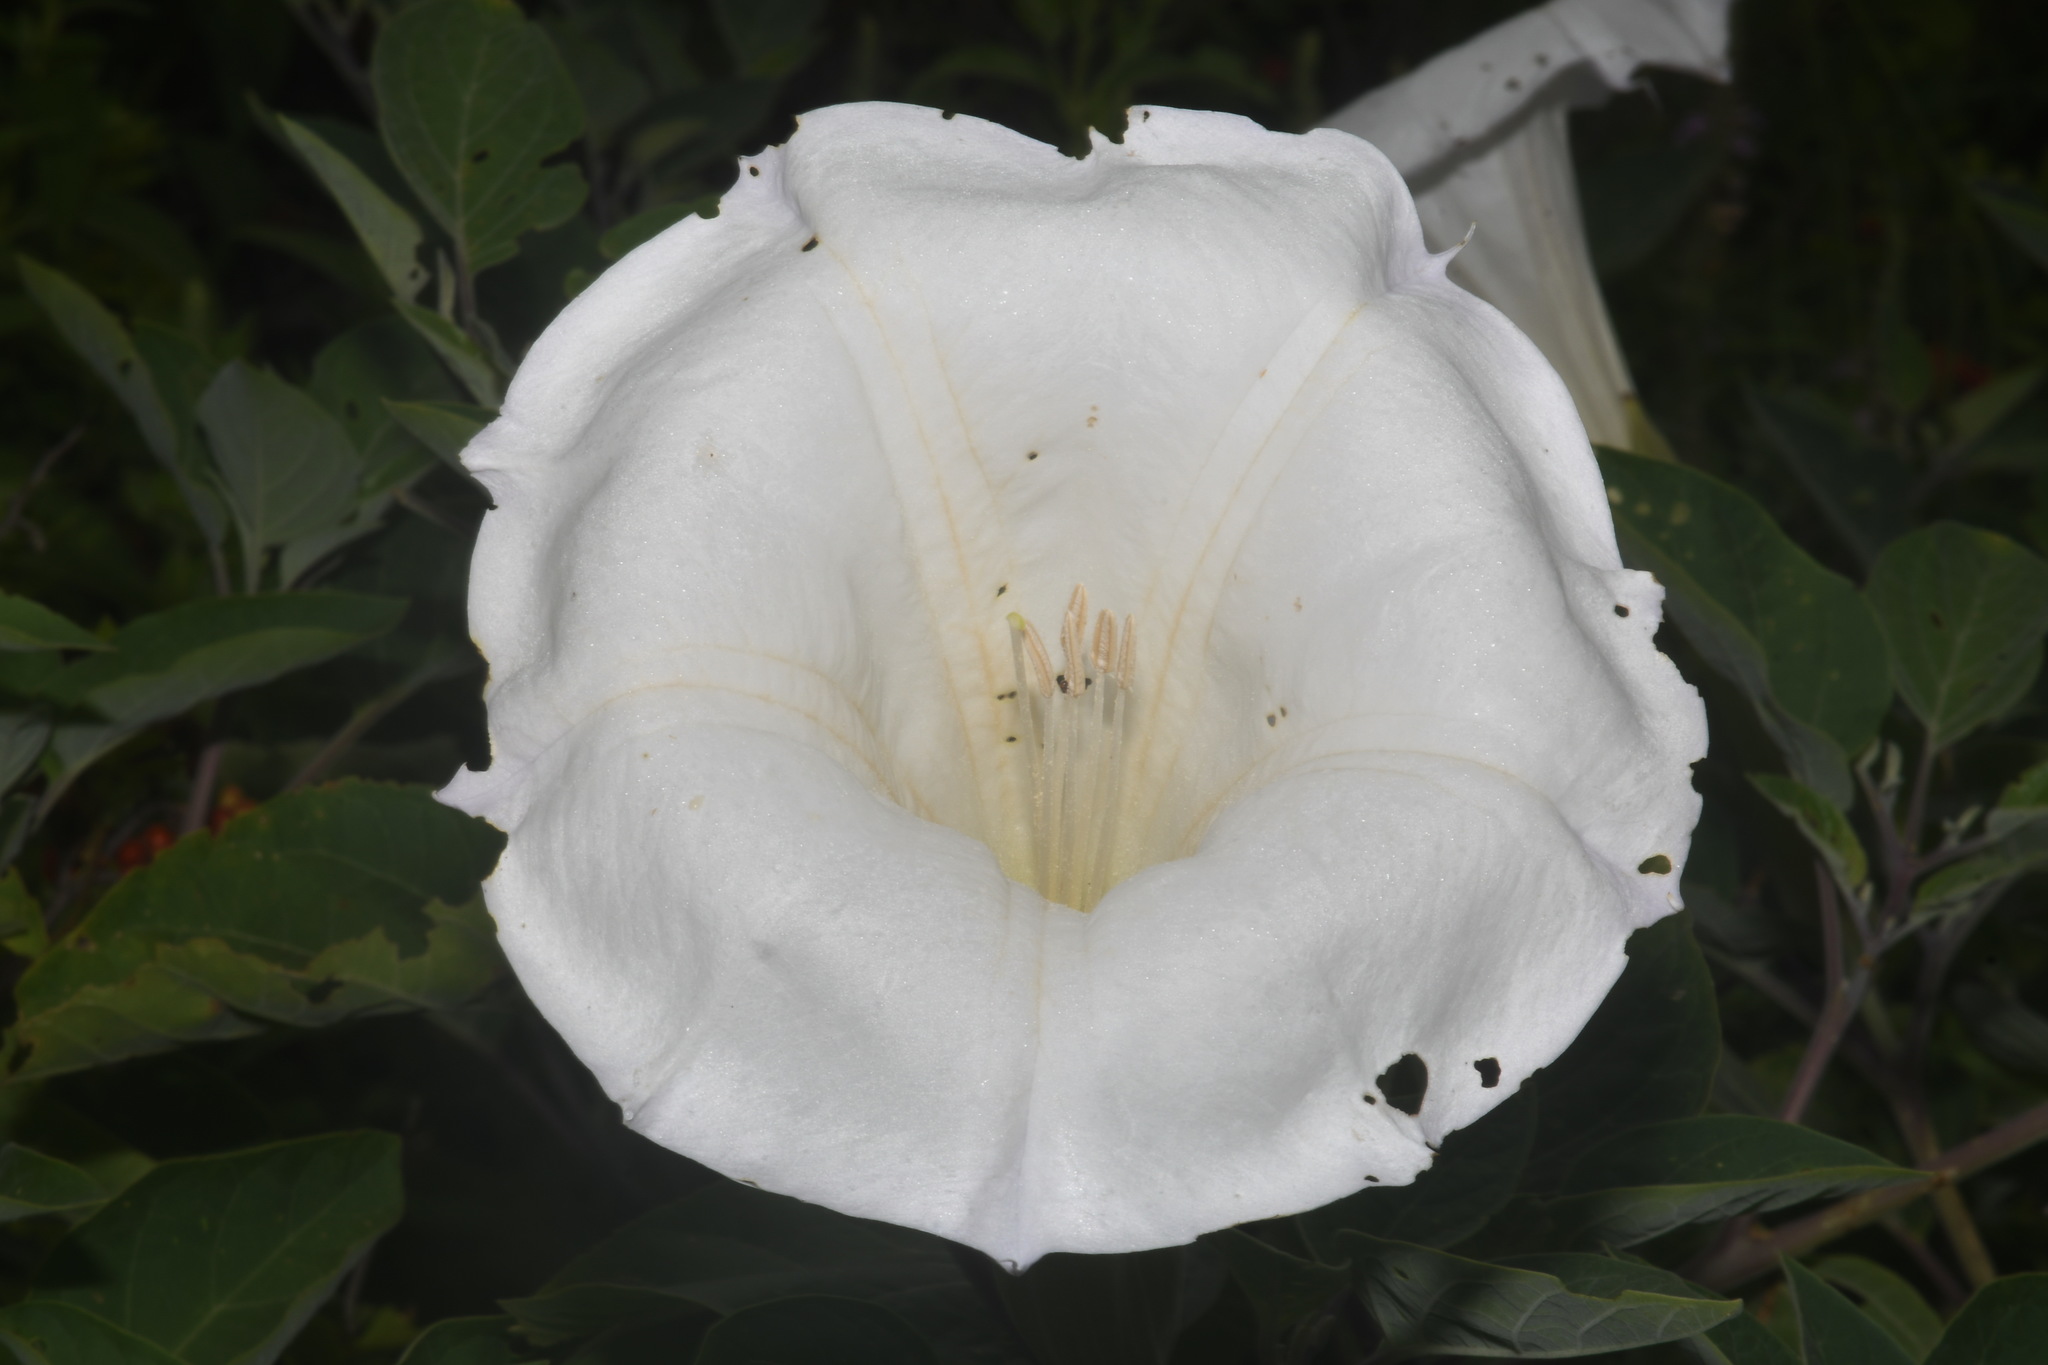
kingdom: Plantae
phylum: Tracheophyta
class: Magnoliopsida
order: Solanales
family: Solanaceae
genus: Datura
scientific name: Datura wrightii
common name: Sacred thorn-apple
